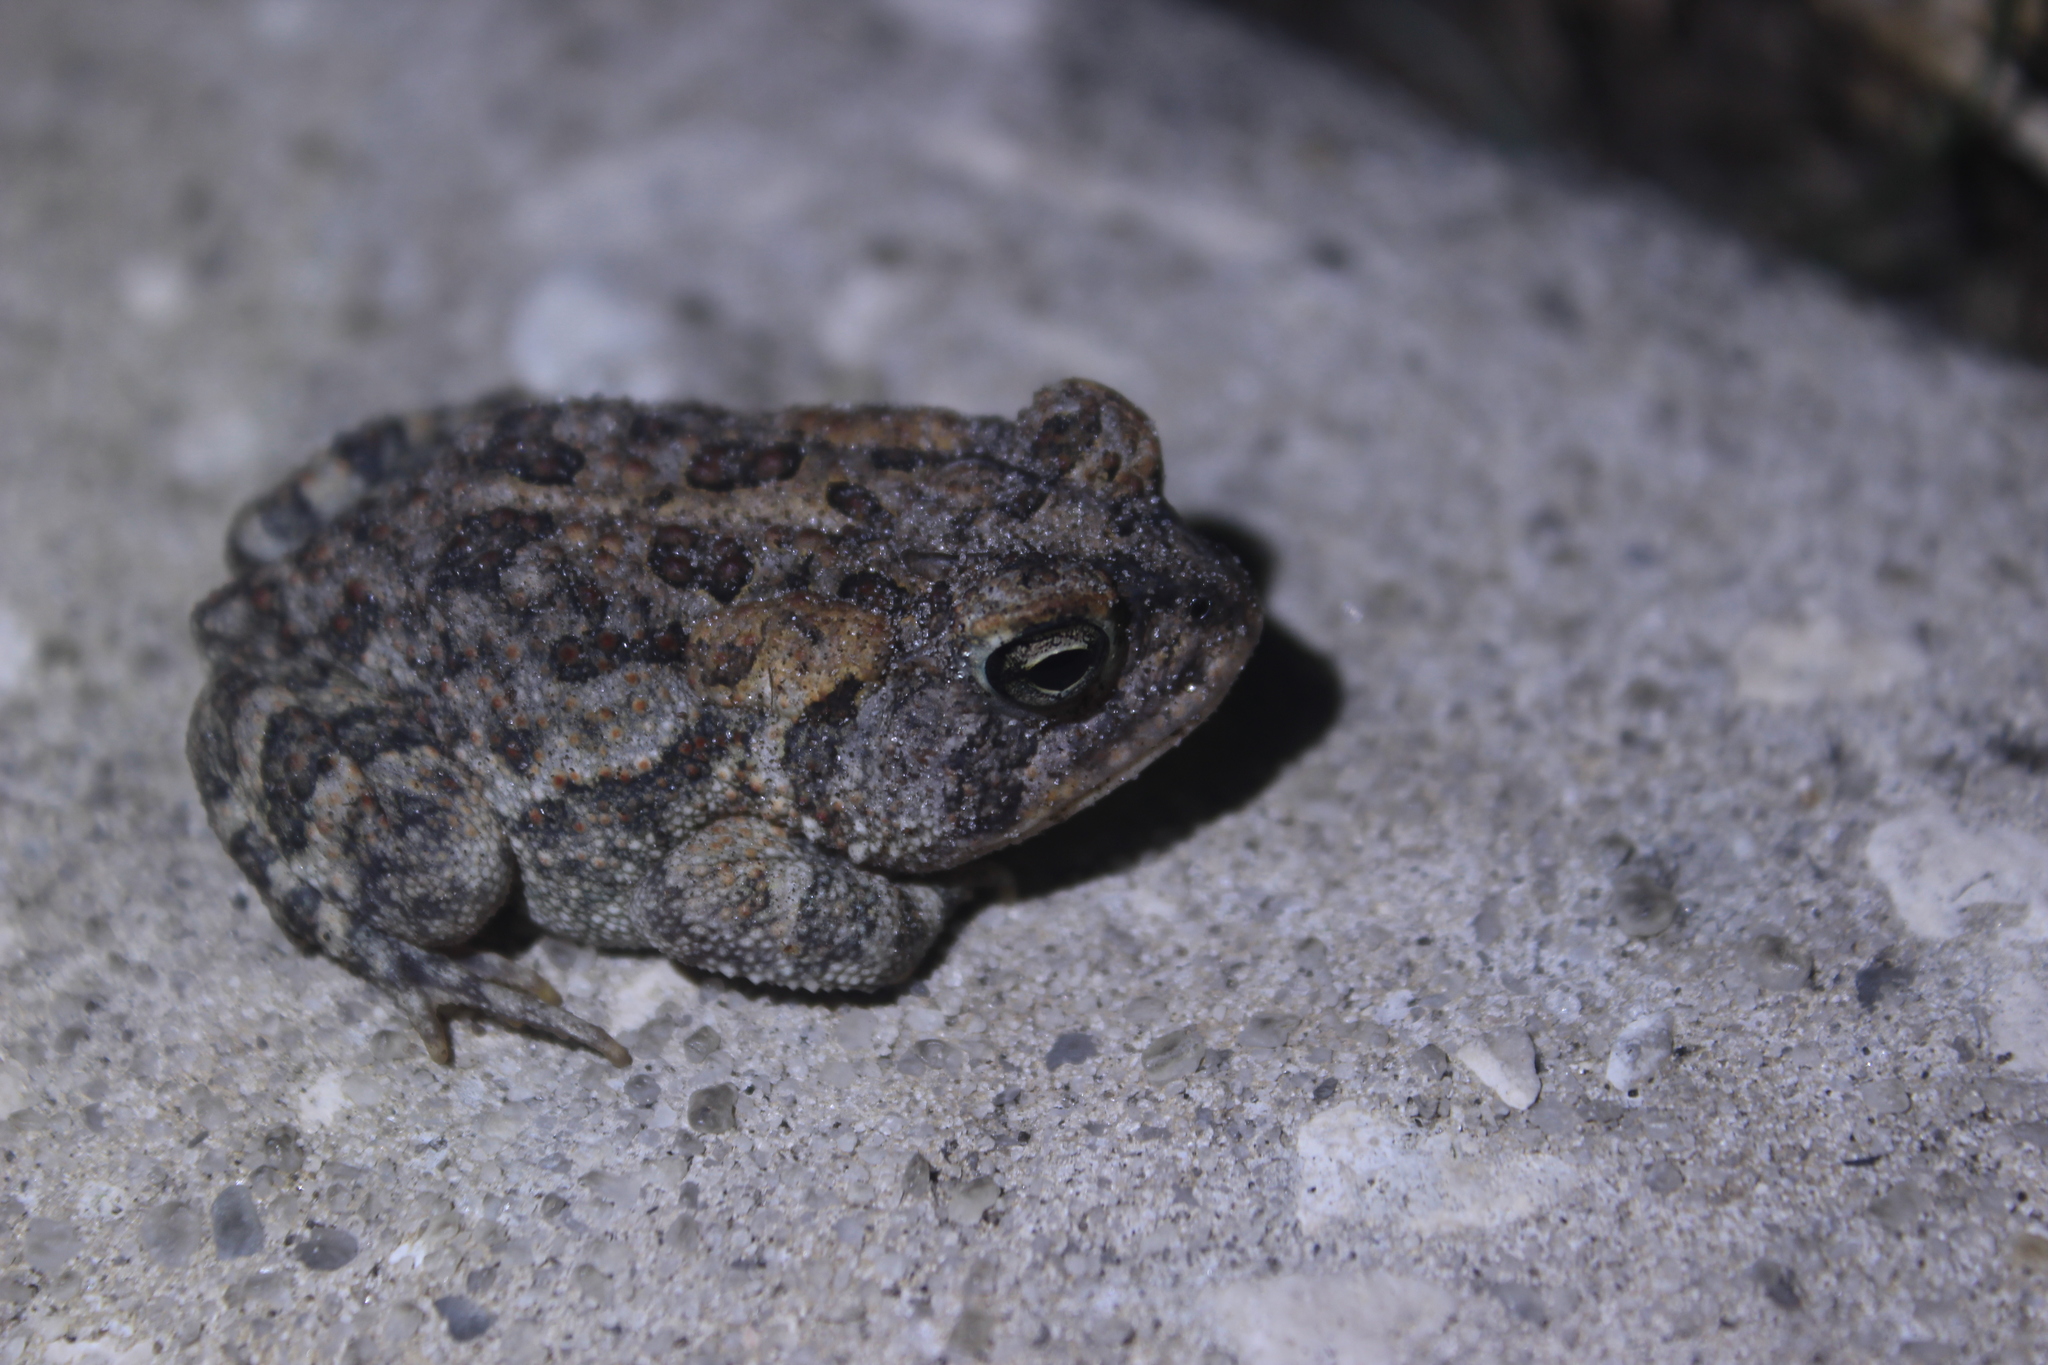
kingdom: Animalia
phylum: Chordata
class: Amphibia
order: Anura
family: Bufonidae
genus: Anaxyrus
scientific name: Anaxyrus terrestris
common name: Southern toad
